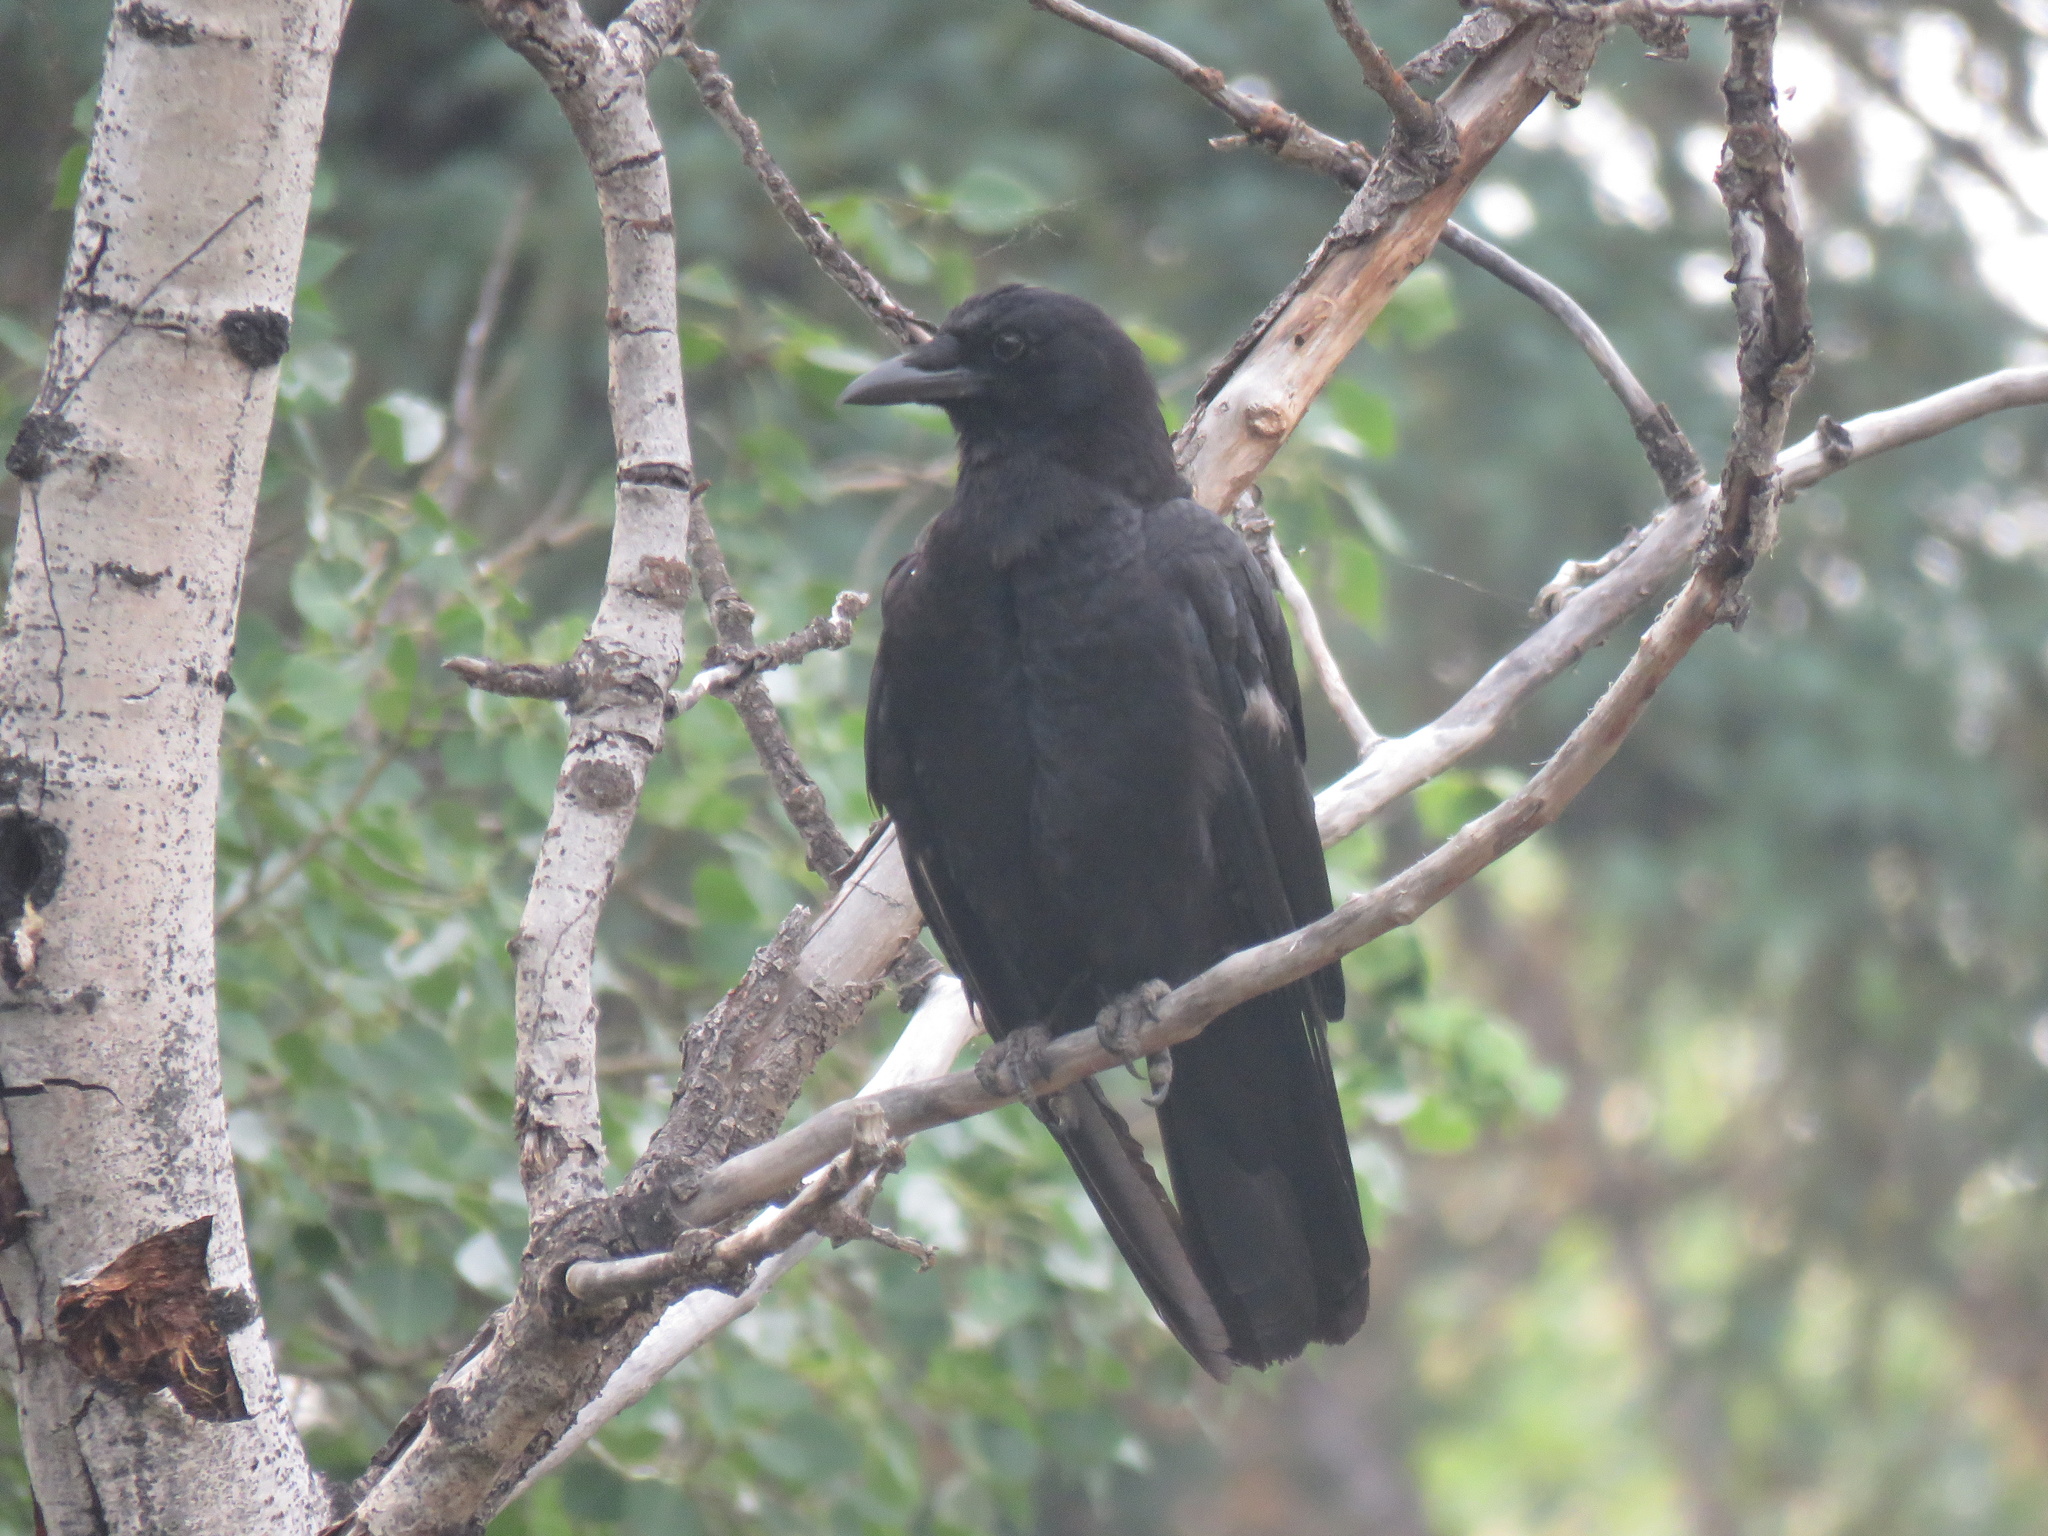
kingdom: Animalia
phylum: Chordata
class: Aves
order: Passeriformes
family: Corvidae
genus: Corvus
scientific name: Corvus brachyrhynchos
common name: American crow
